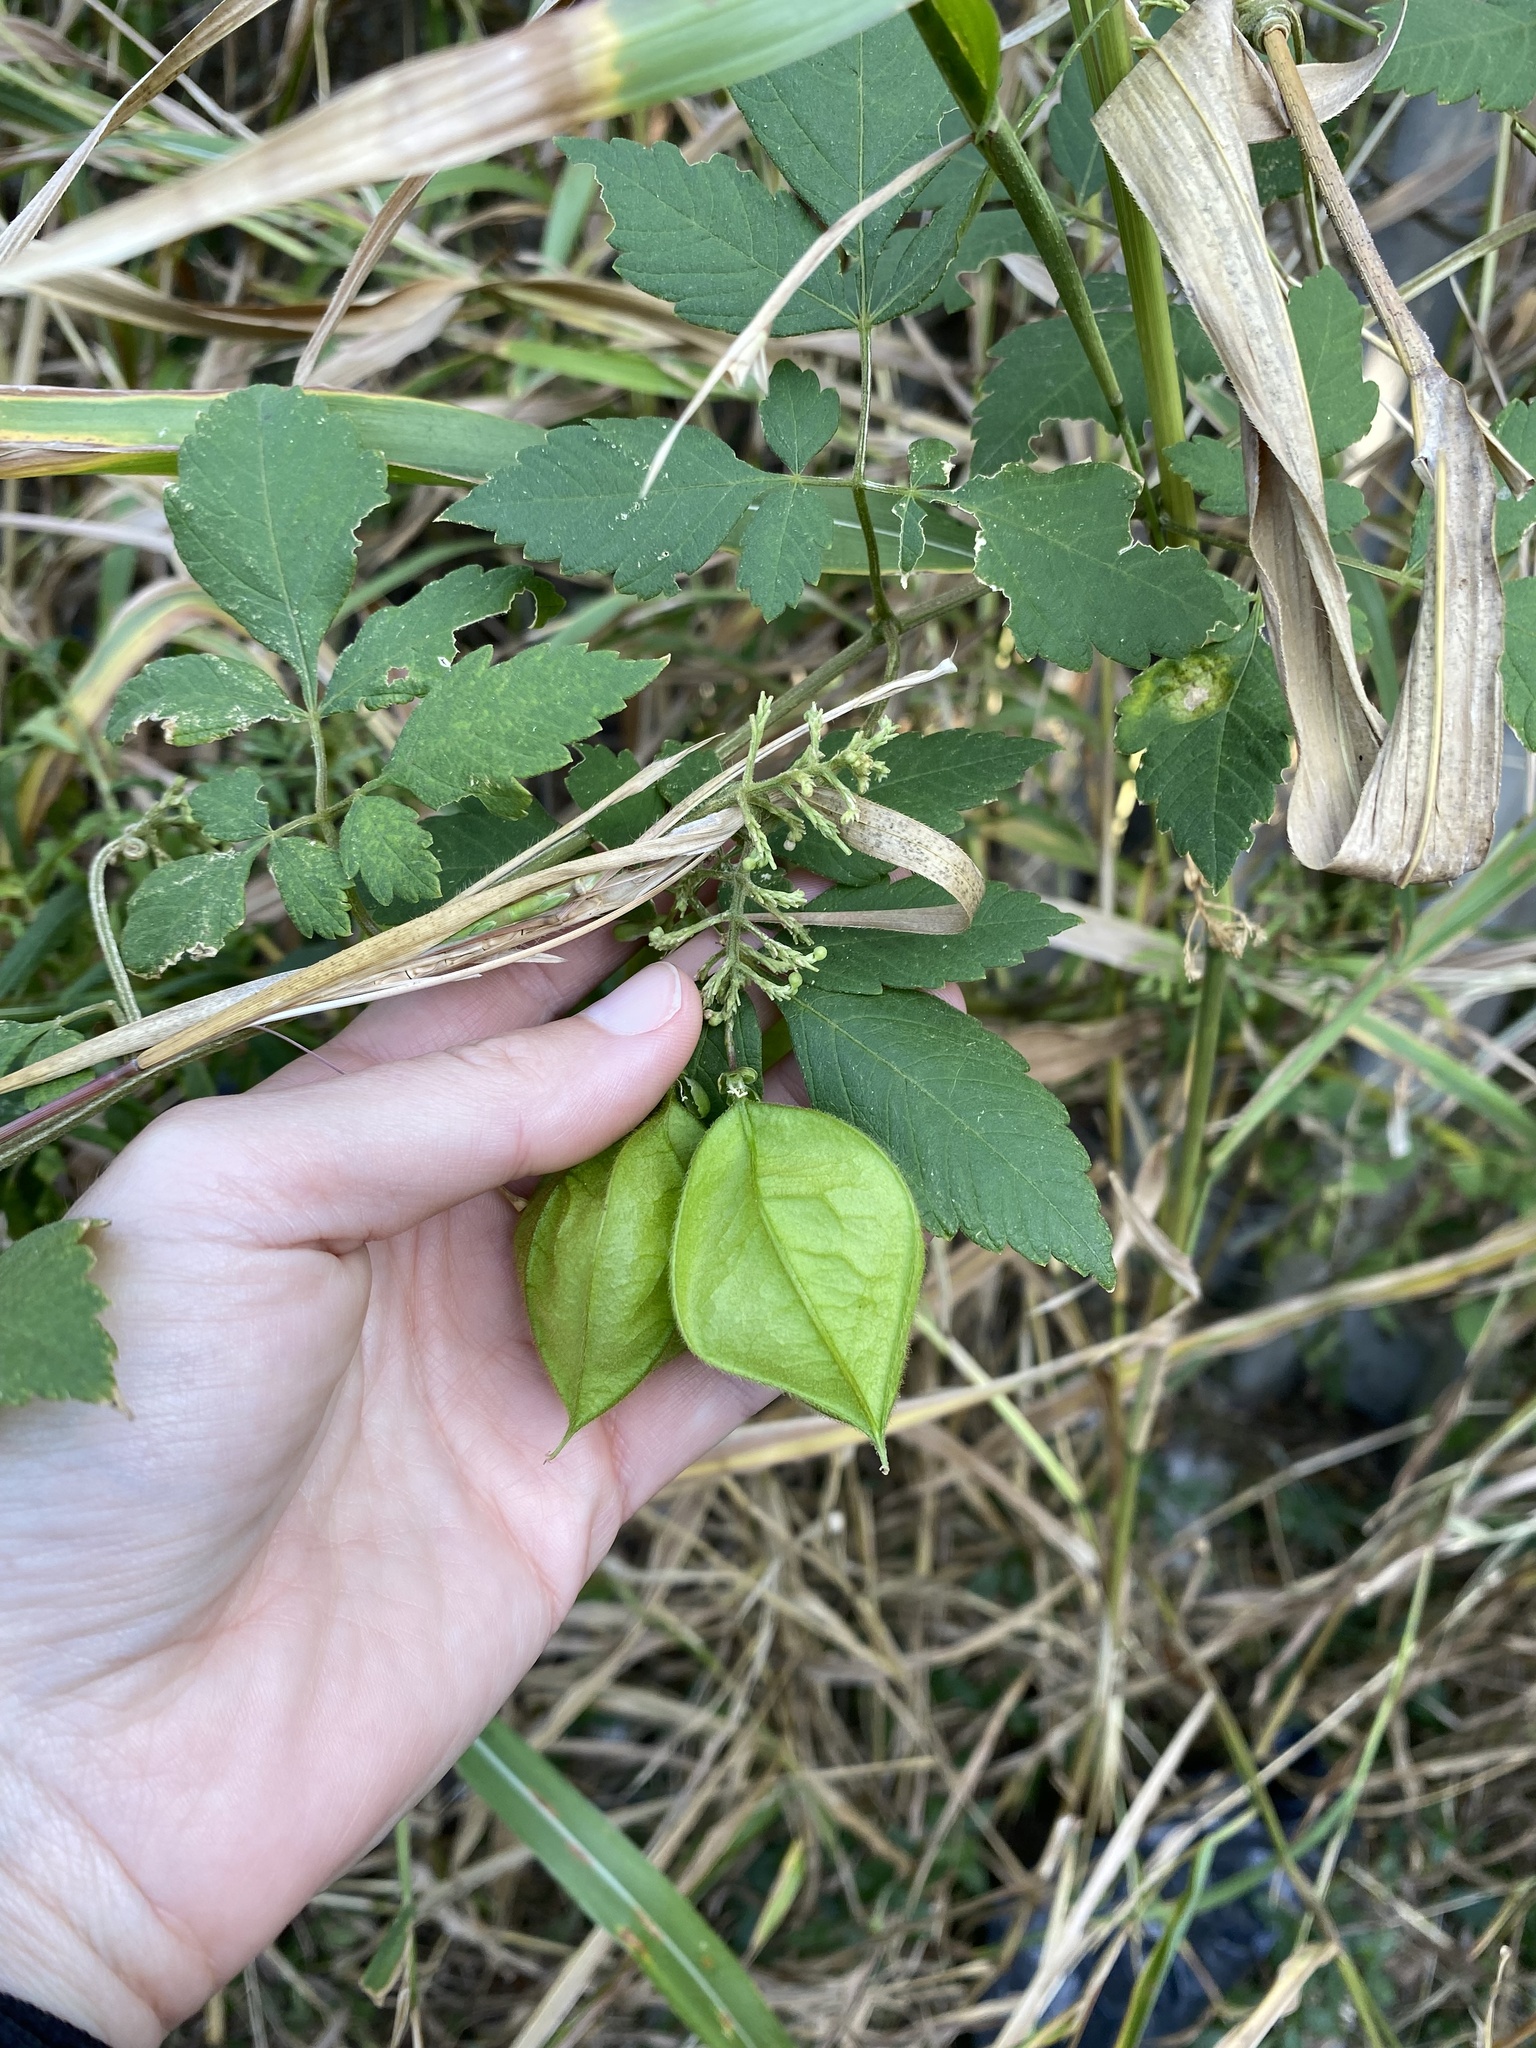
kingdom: Plantae
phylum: Tracheophyta
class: Magnoliopsida
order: Sapindales
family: Sapindaceae
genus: Cardiospermum
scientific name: Cardiospermum grandiflorum
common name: Balloon vine
